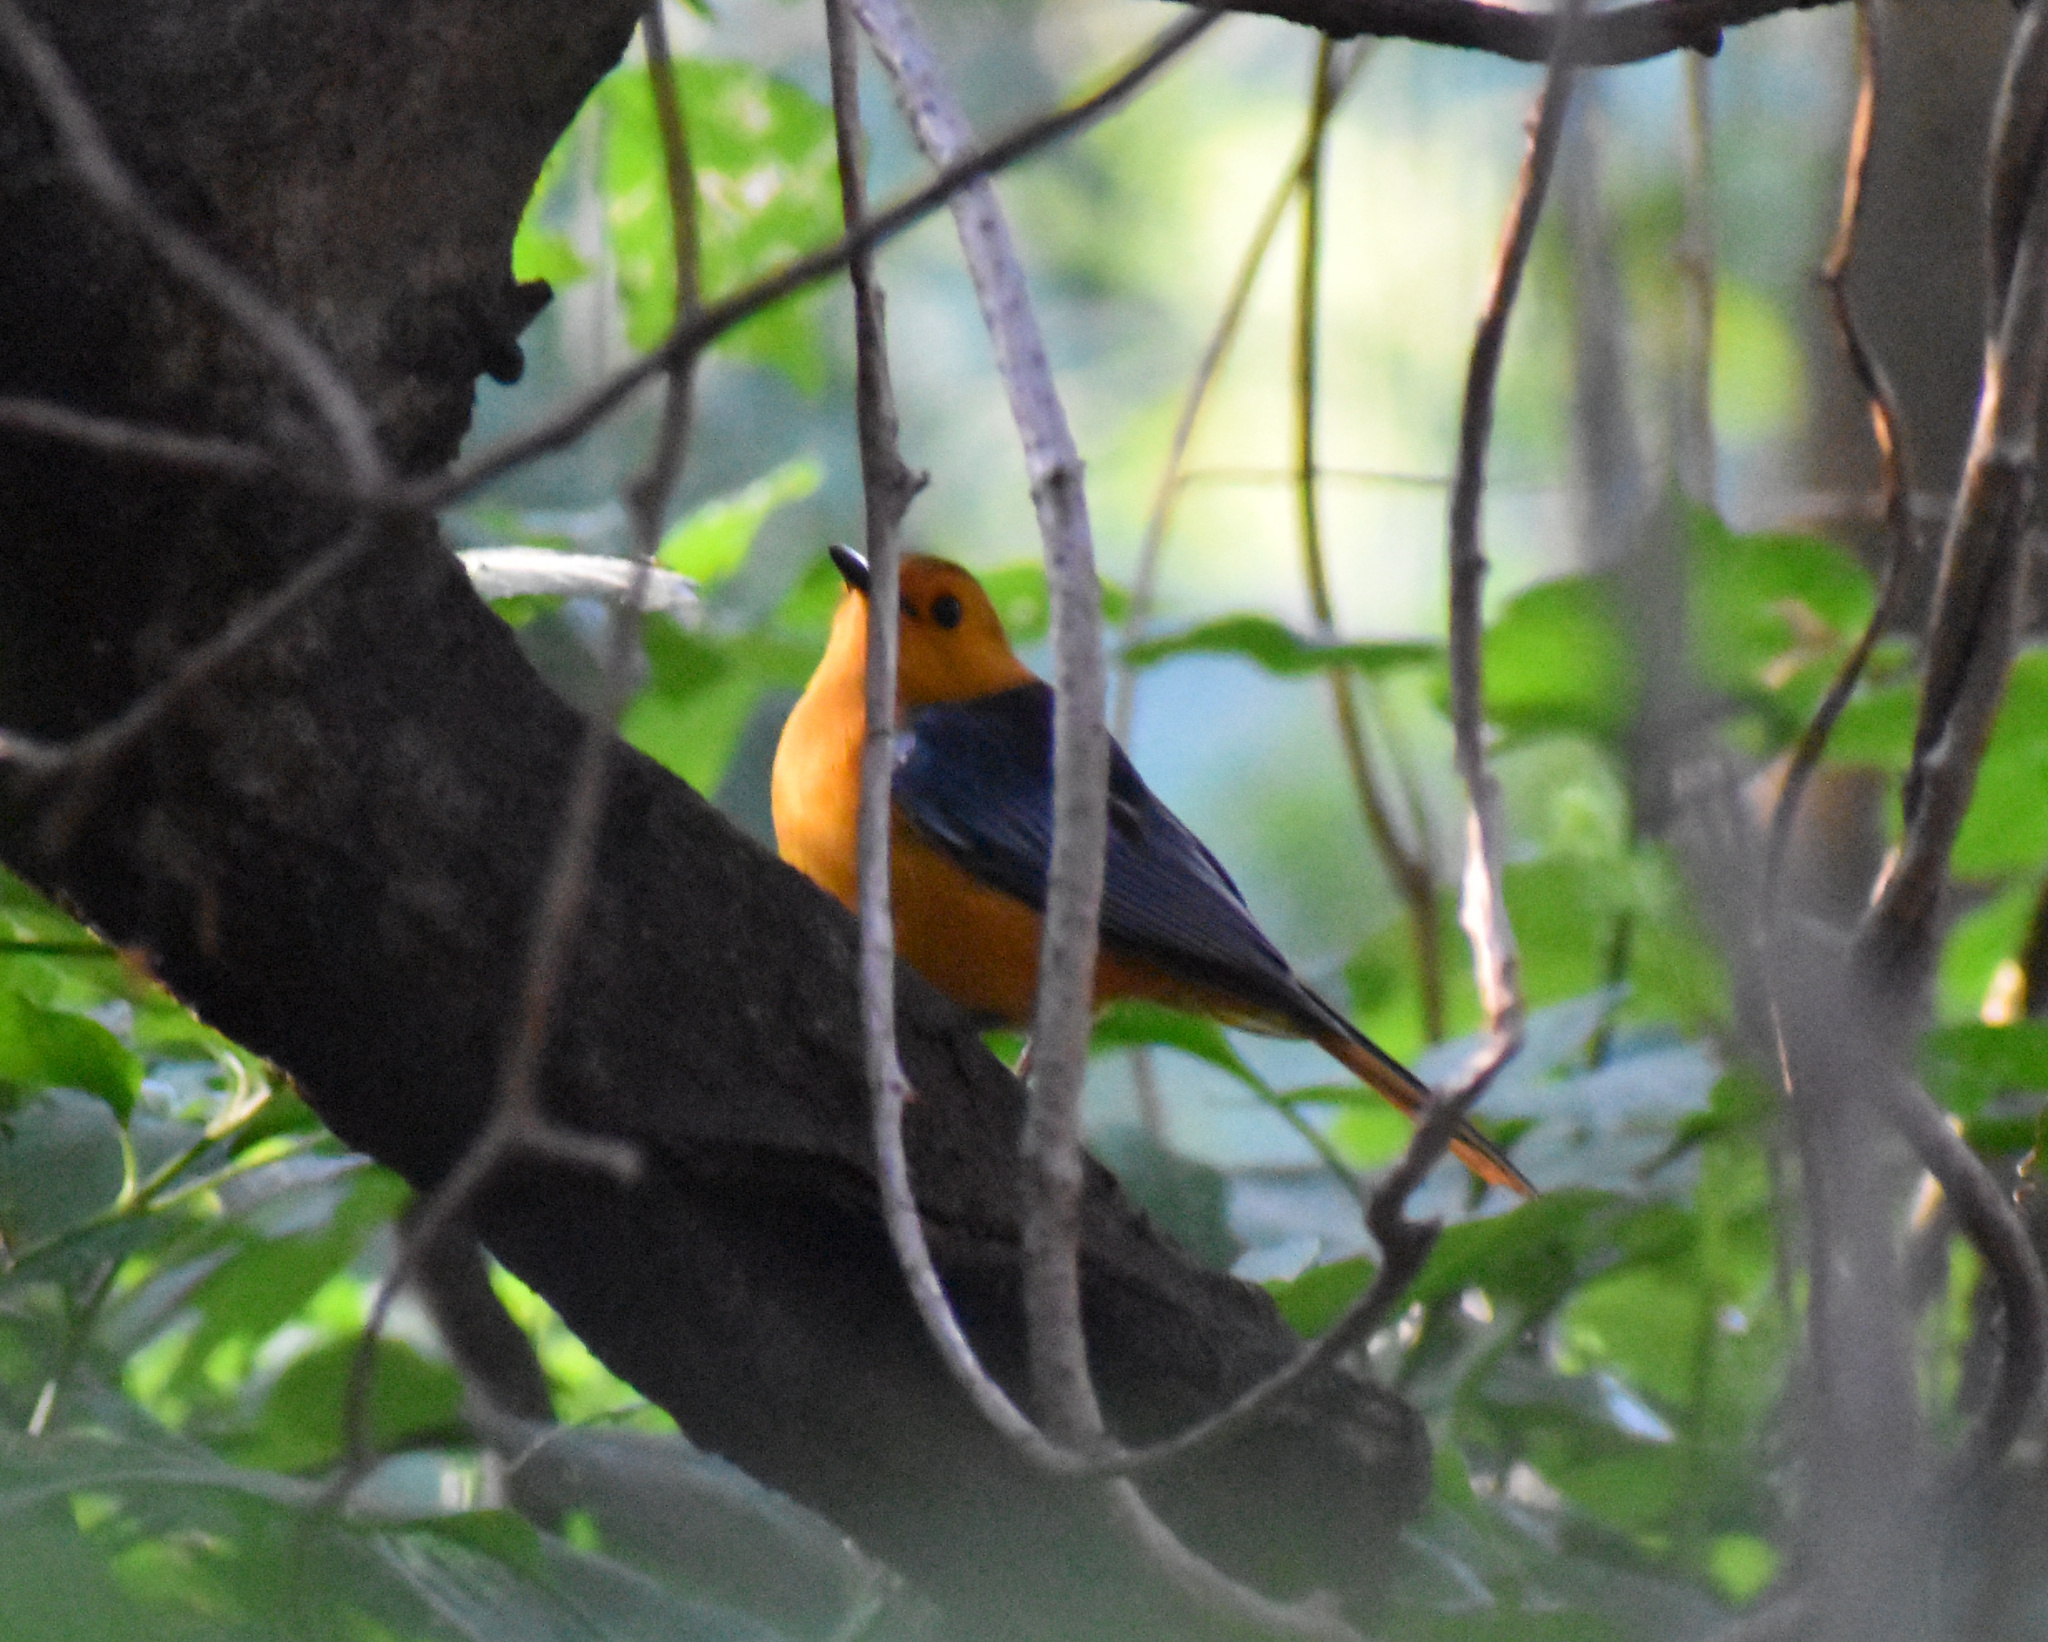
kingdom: Animalia
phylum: Chordata
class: Aves
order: Passeriformes
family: Muscicapidae
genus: Cossypha
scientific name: Cossypha natalensis
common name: Red-capped robin-chat
